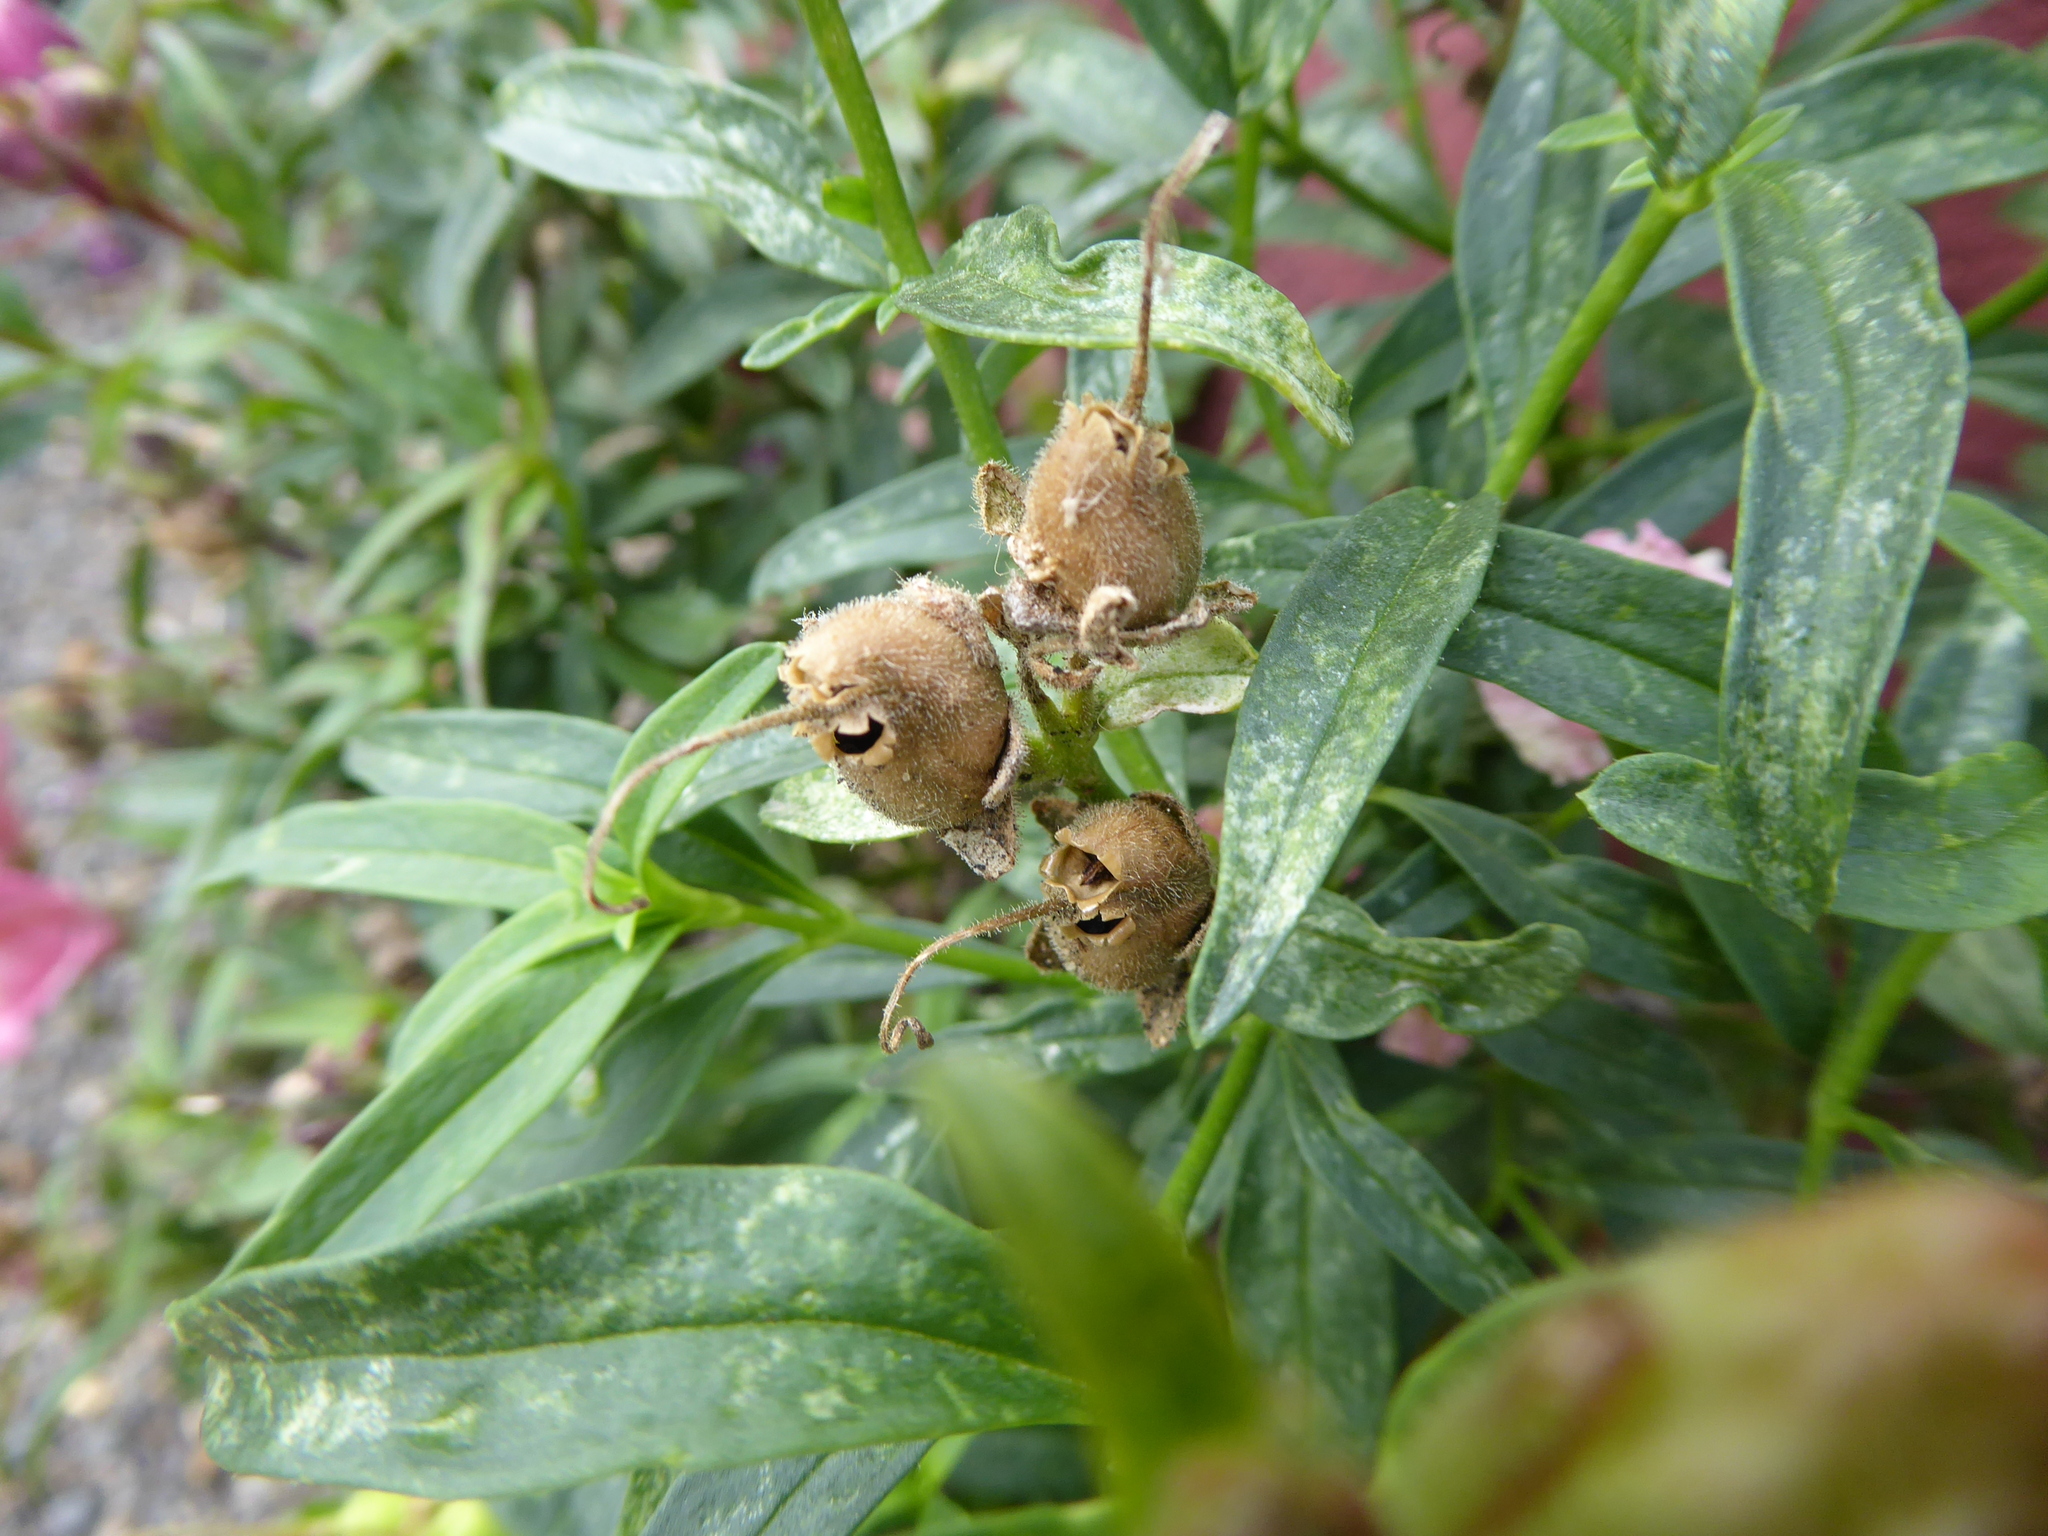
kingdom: Plantae
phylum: Tracheophyta
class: Magnoliopsida
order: Lamiales
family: Plantaginaceae
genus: Antirrhinum
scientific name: Antirrhinum majus
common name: Snapdragon
